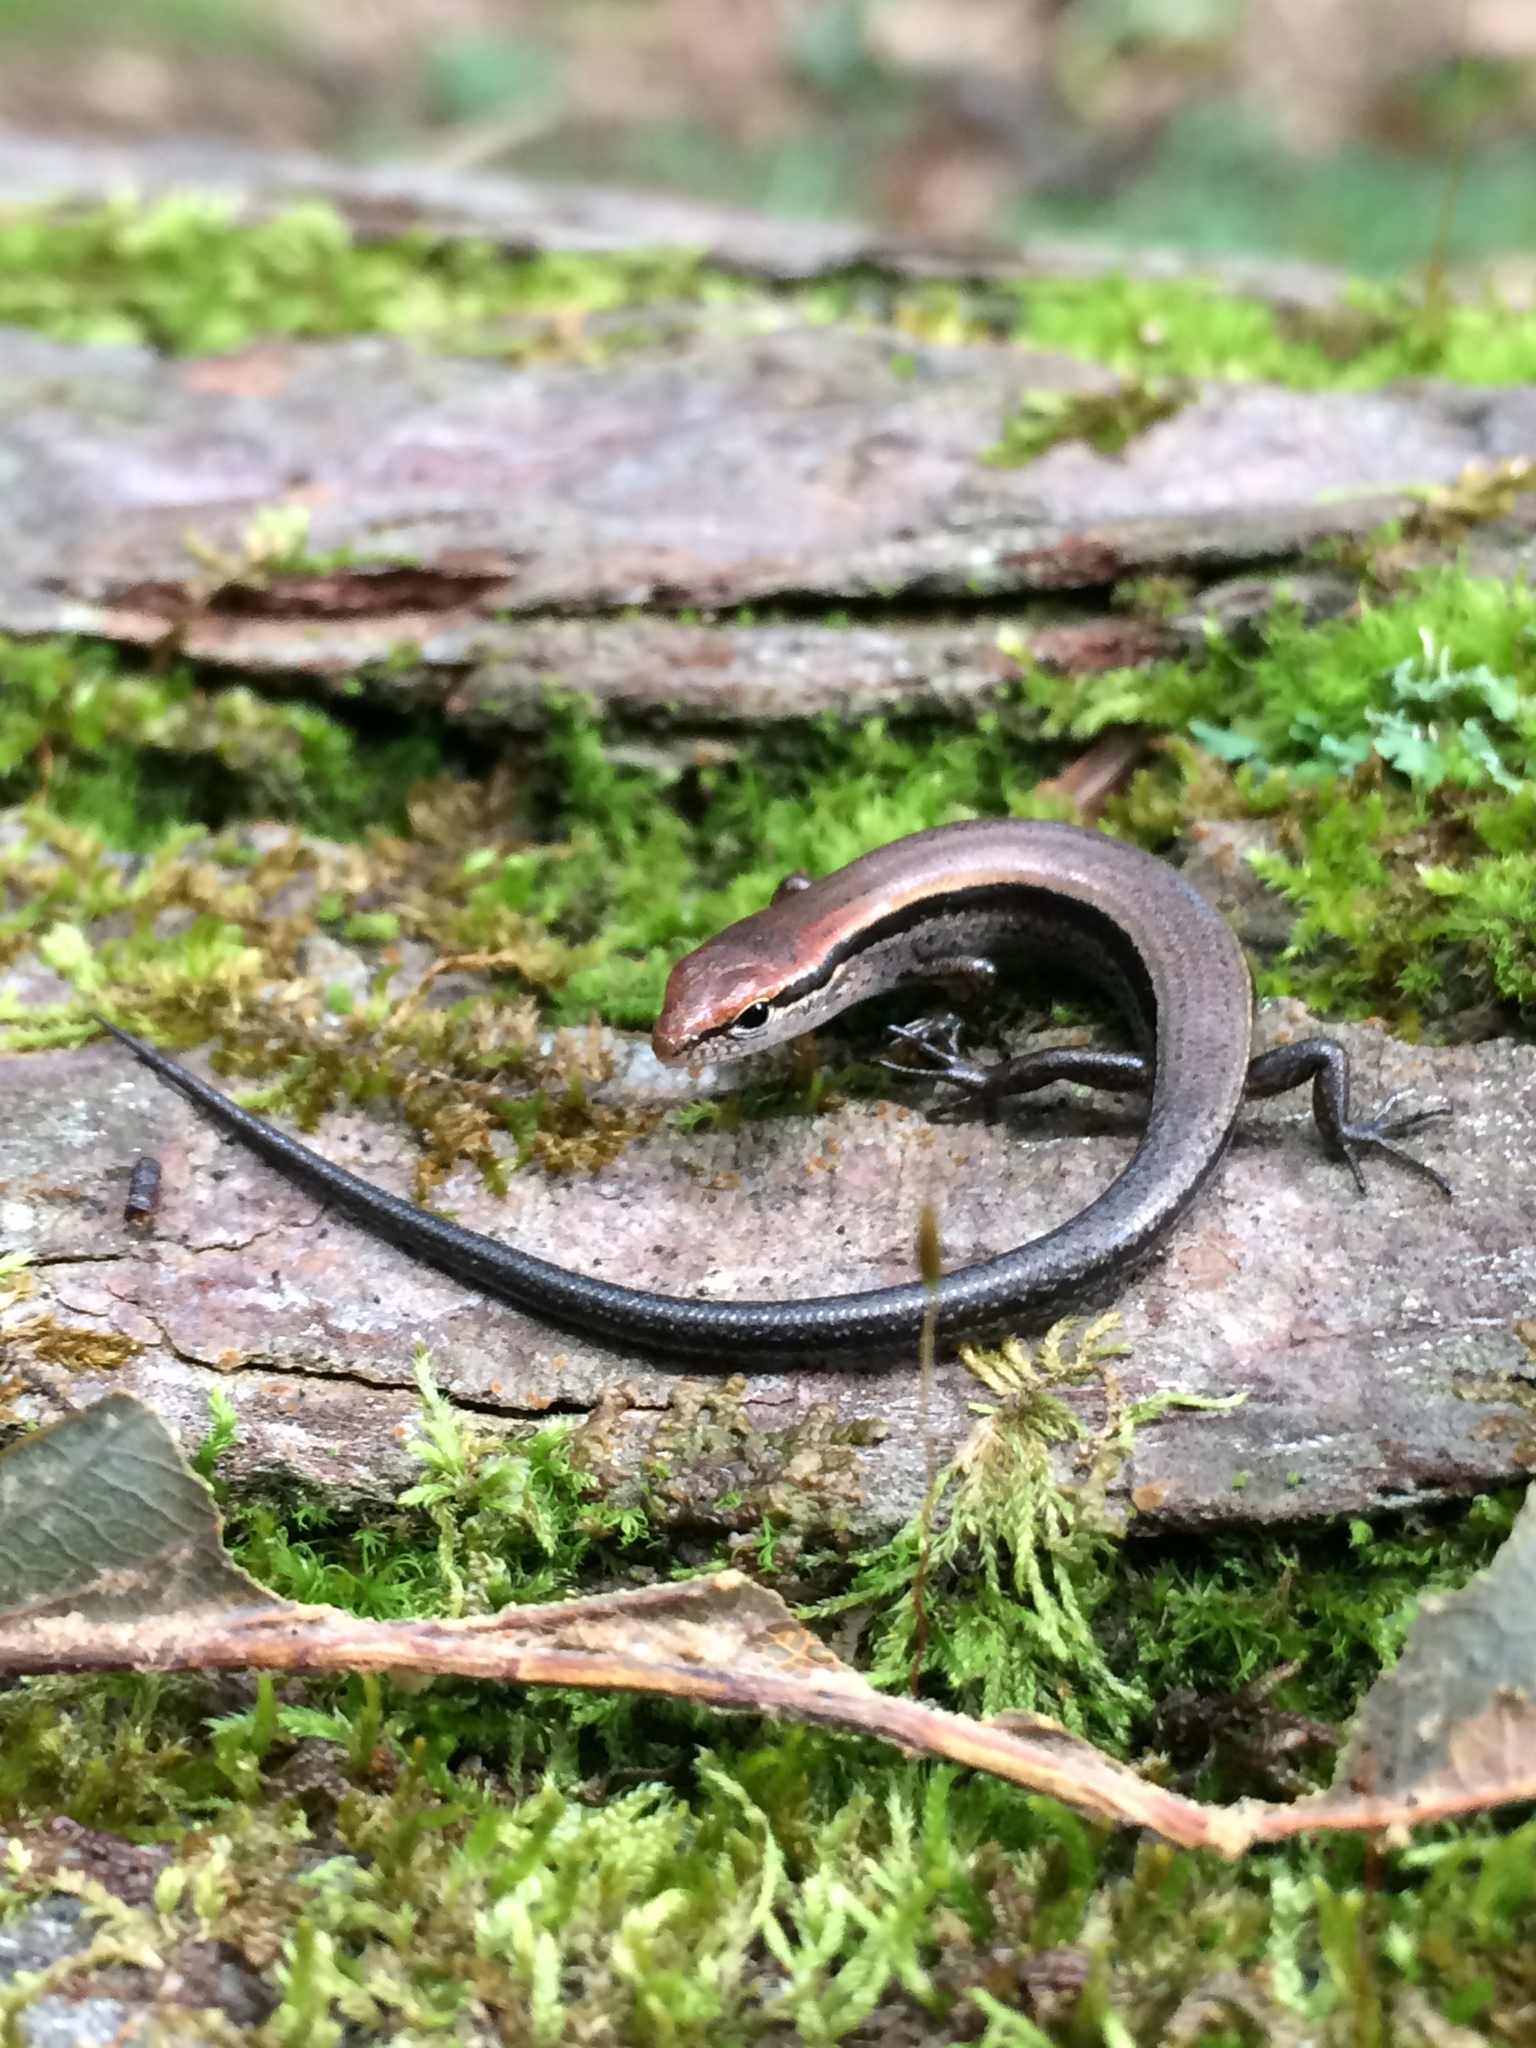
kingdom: Animalia
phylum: Chordata
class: Squamata
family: Scincidae
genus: Scincella
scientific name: Scincella lateralis
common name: Ground skink
